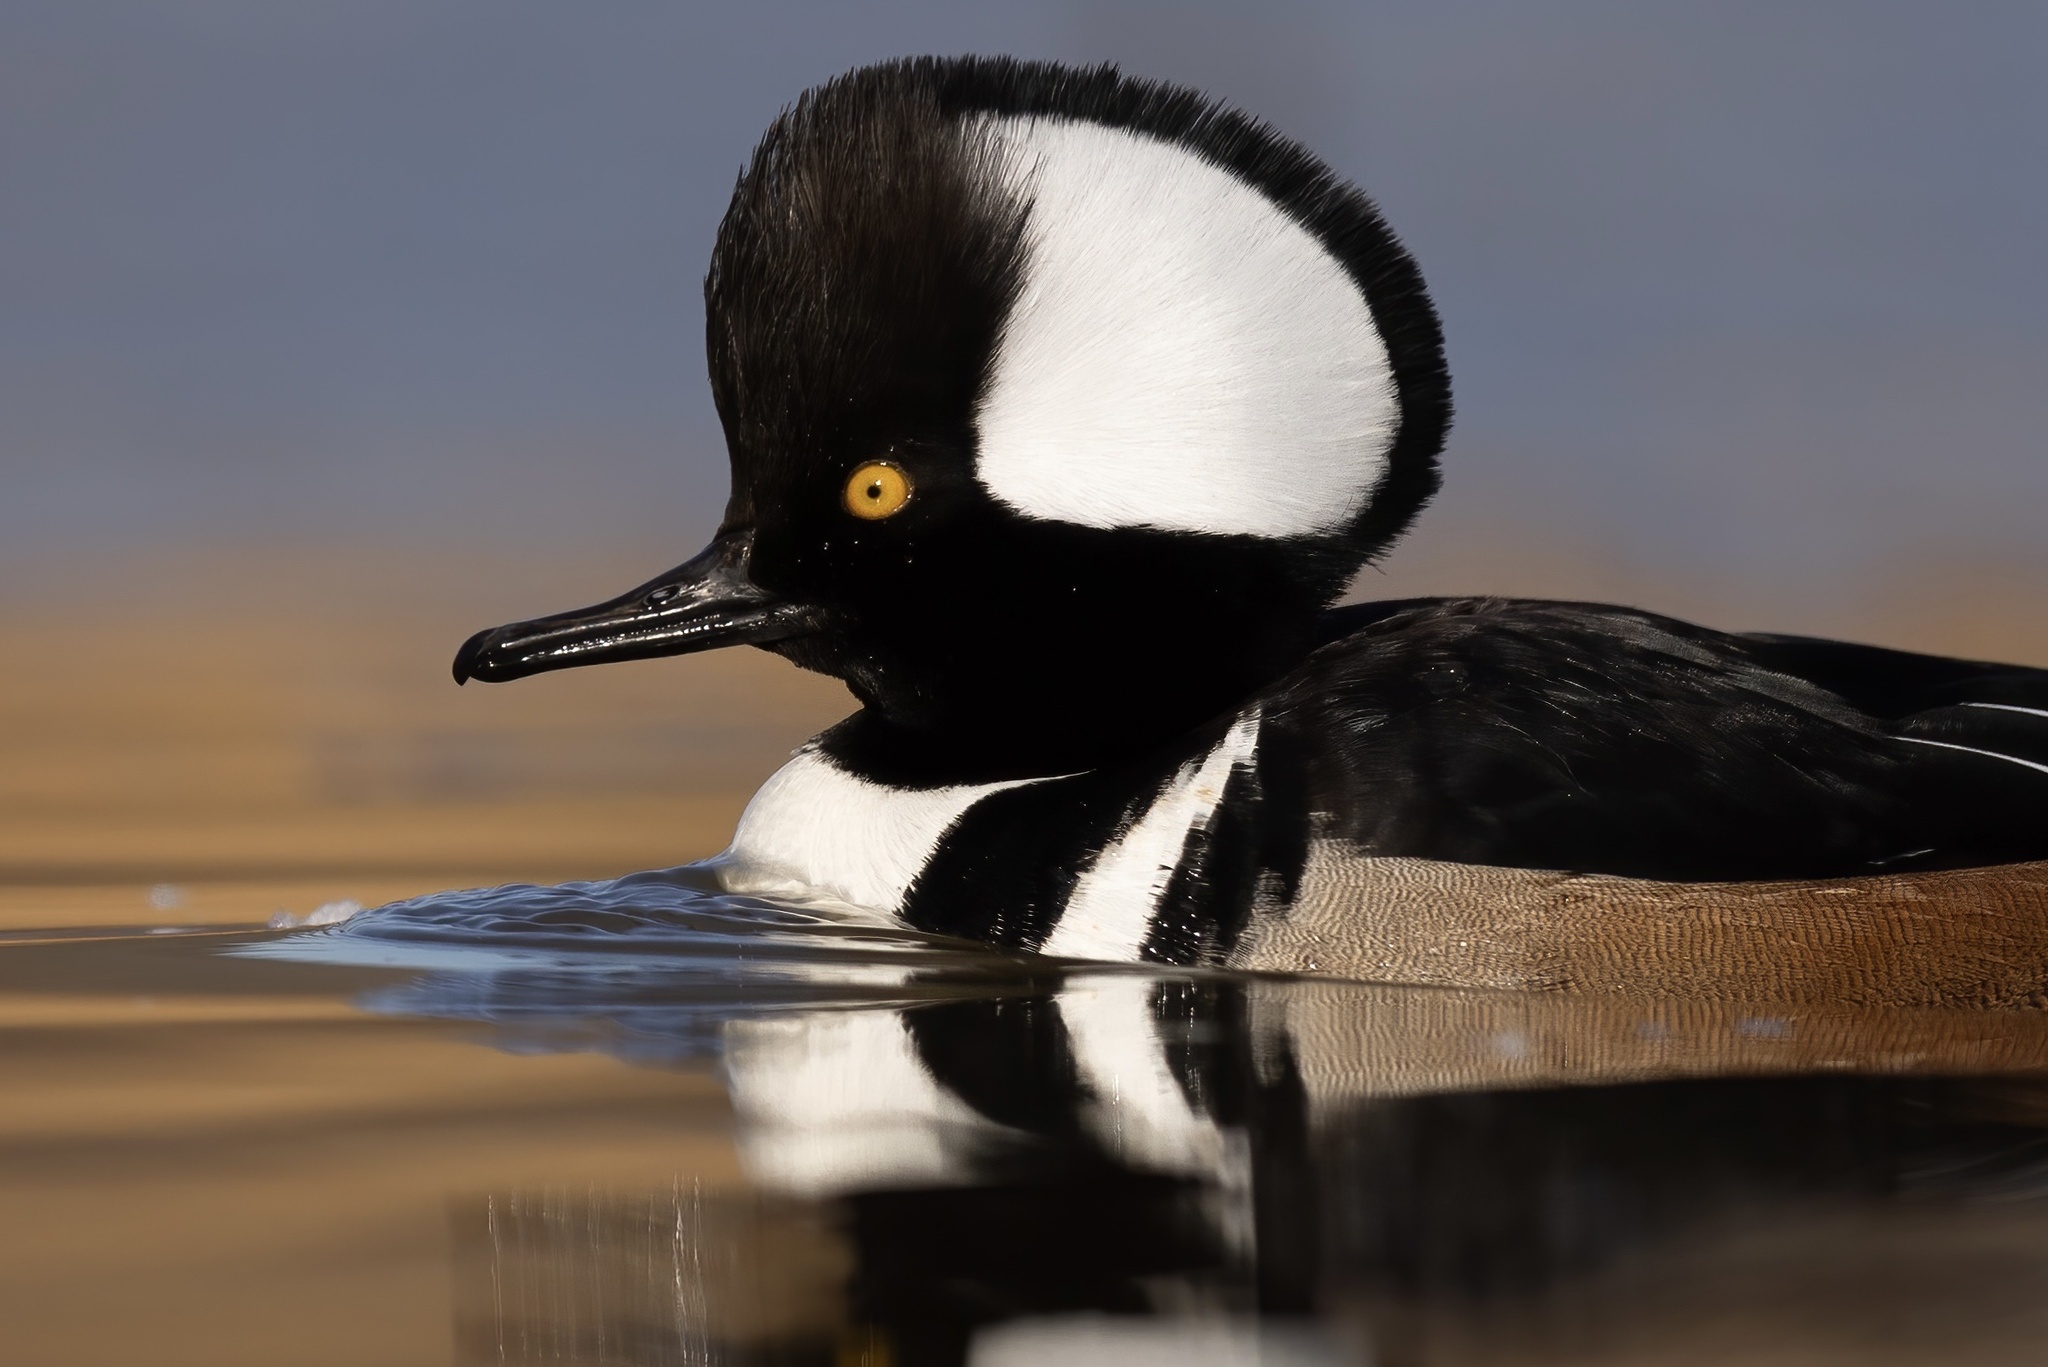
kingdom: Animalia
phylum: Chordata
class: Aves
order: Anseriformes
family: Anatidae
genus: Lophodytes
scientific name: Lophodytes cucullatus
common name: Hooded merganser
